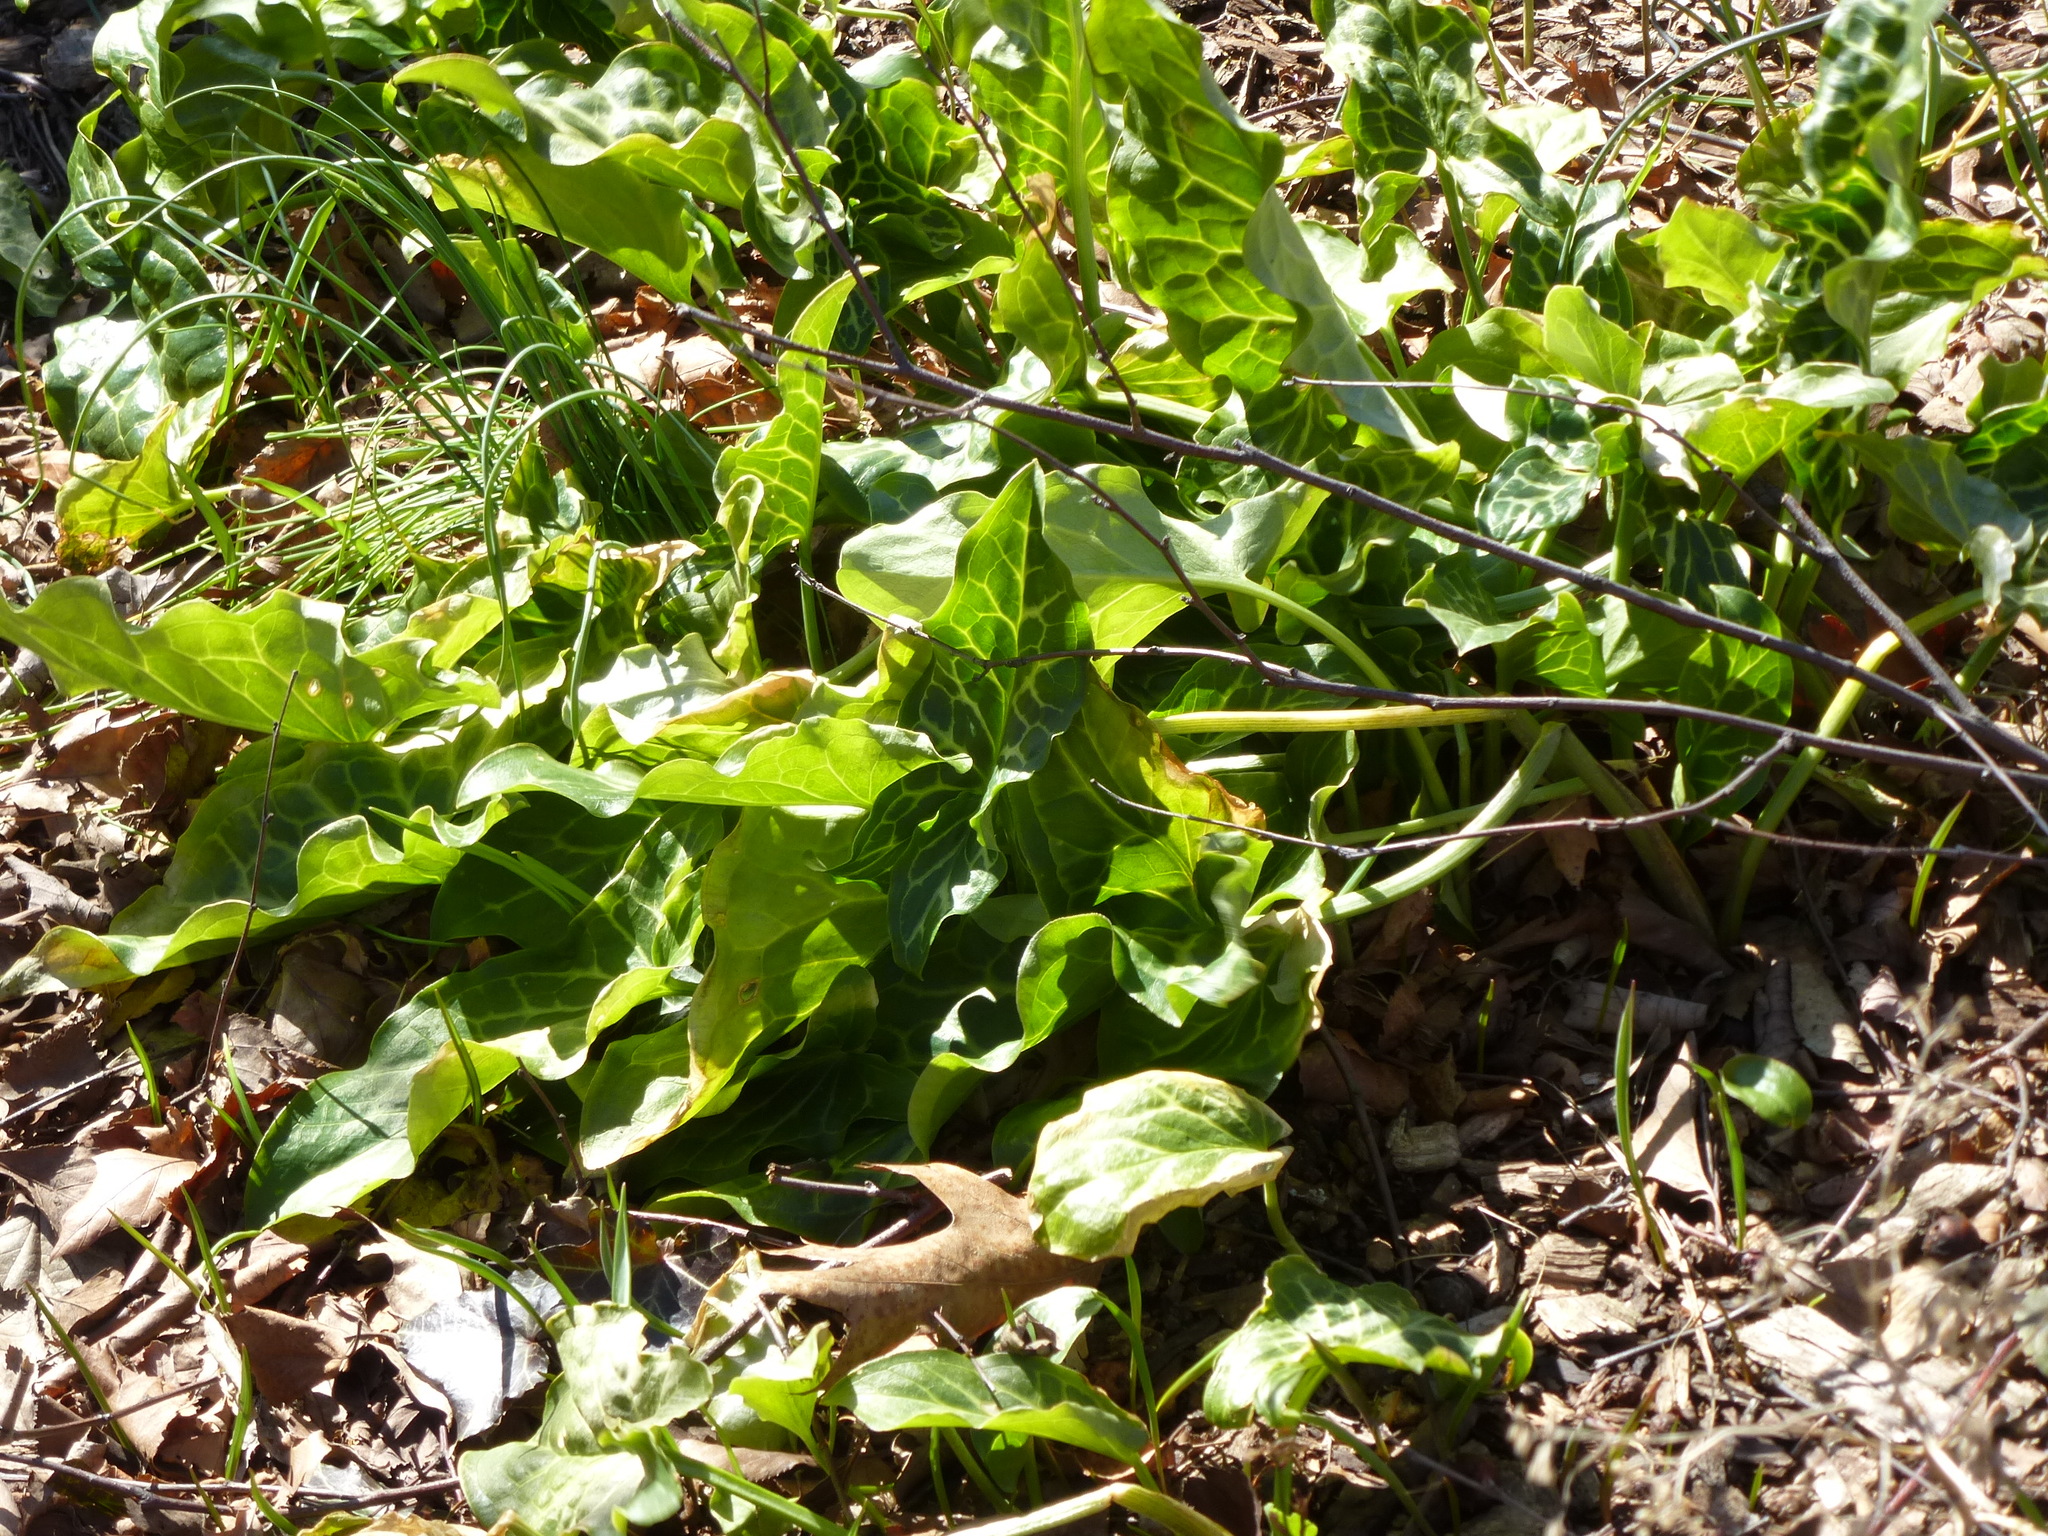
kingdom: Plantae
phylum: Tracheophyta
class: Liliopsida
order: Alismatales
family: Araceae
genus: Arum
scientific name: Arum italicum
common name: Italian lords-and-ladies
